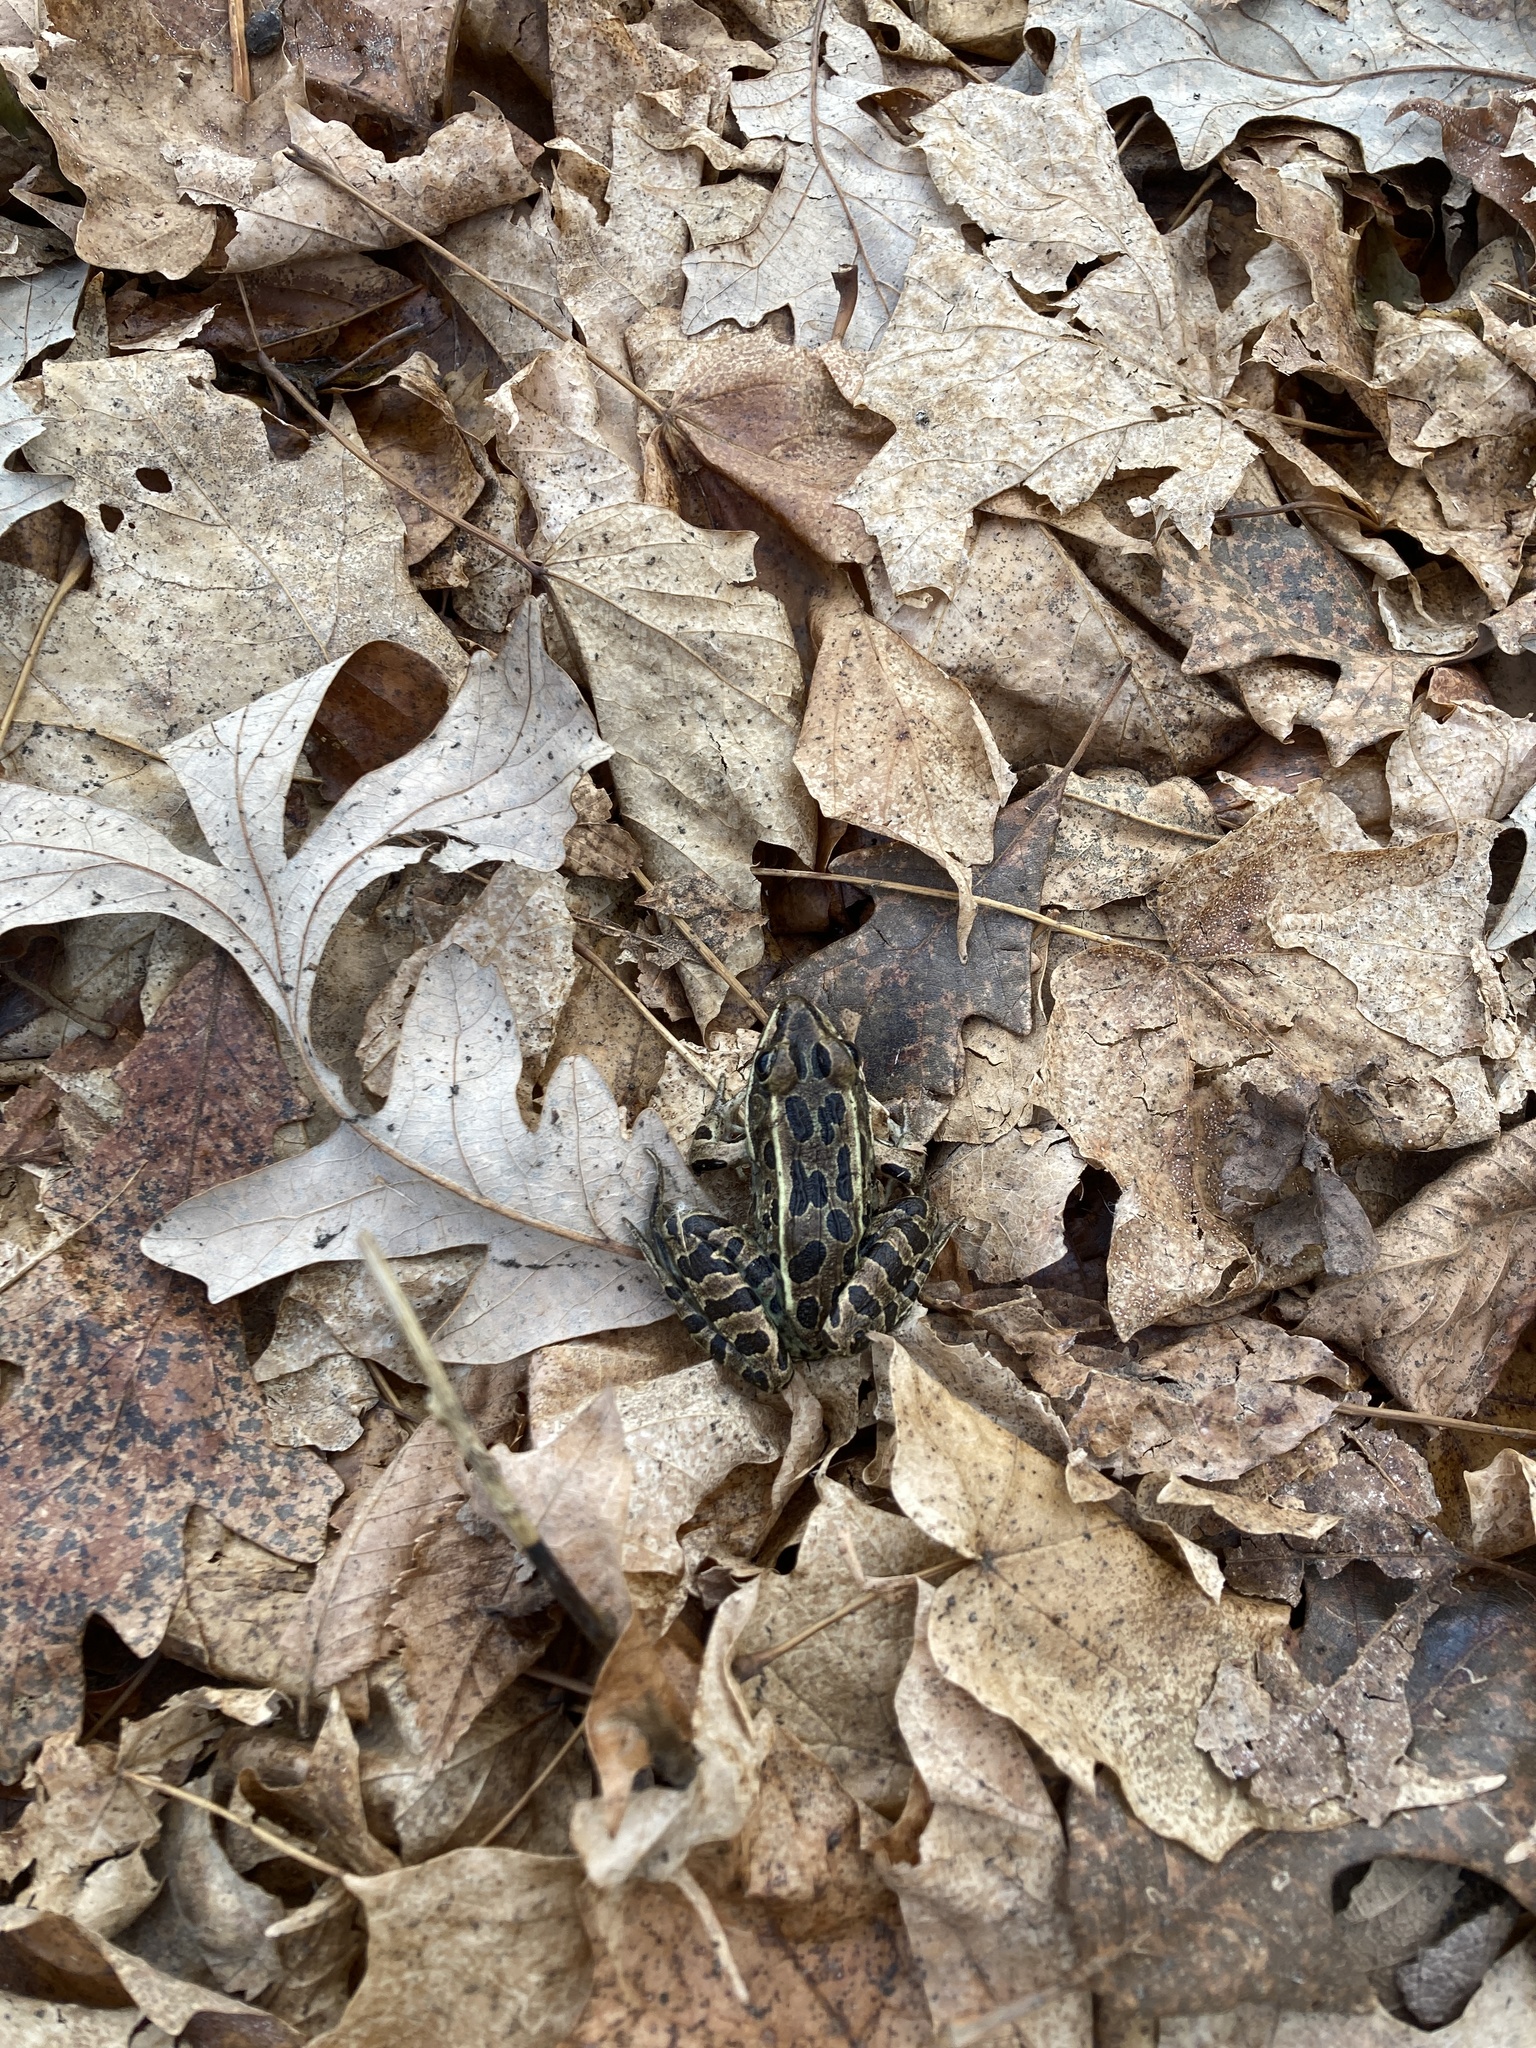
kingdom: Animalia
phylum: Chordata
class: Amphibia
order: Anura
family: Ranidae
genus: Lithobates
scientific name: Lithobates pipiens
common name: Northern leopard frog
